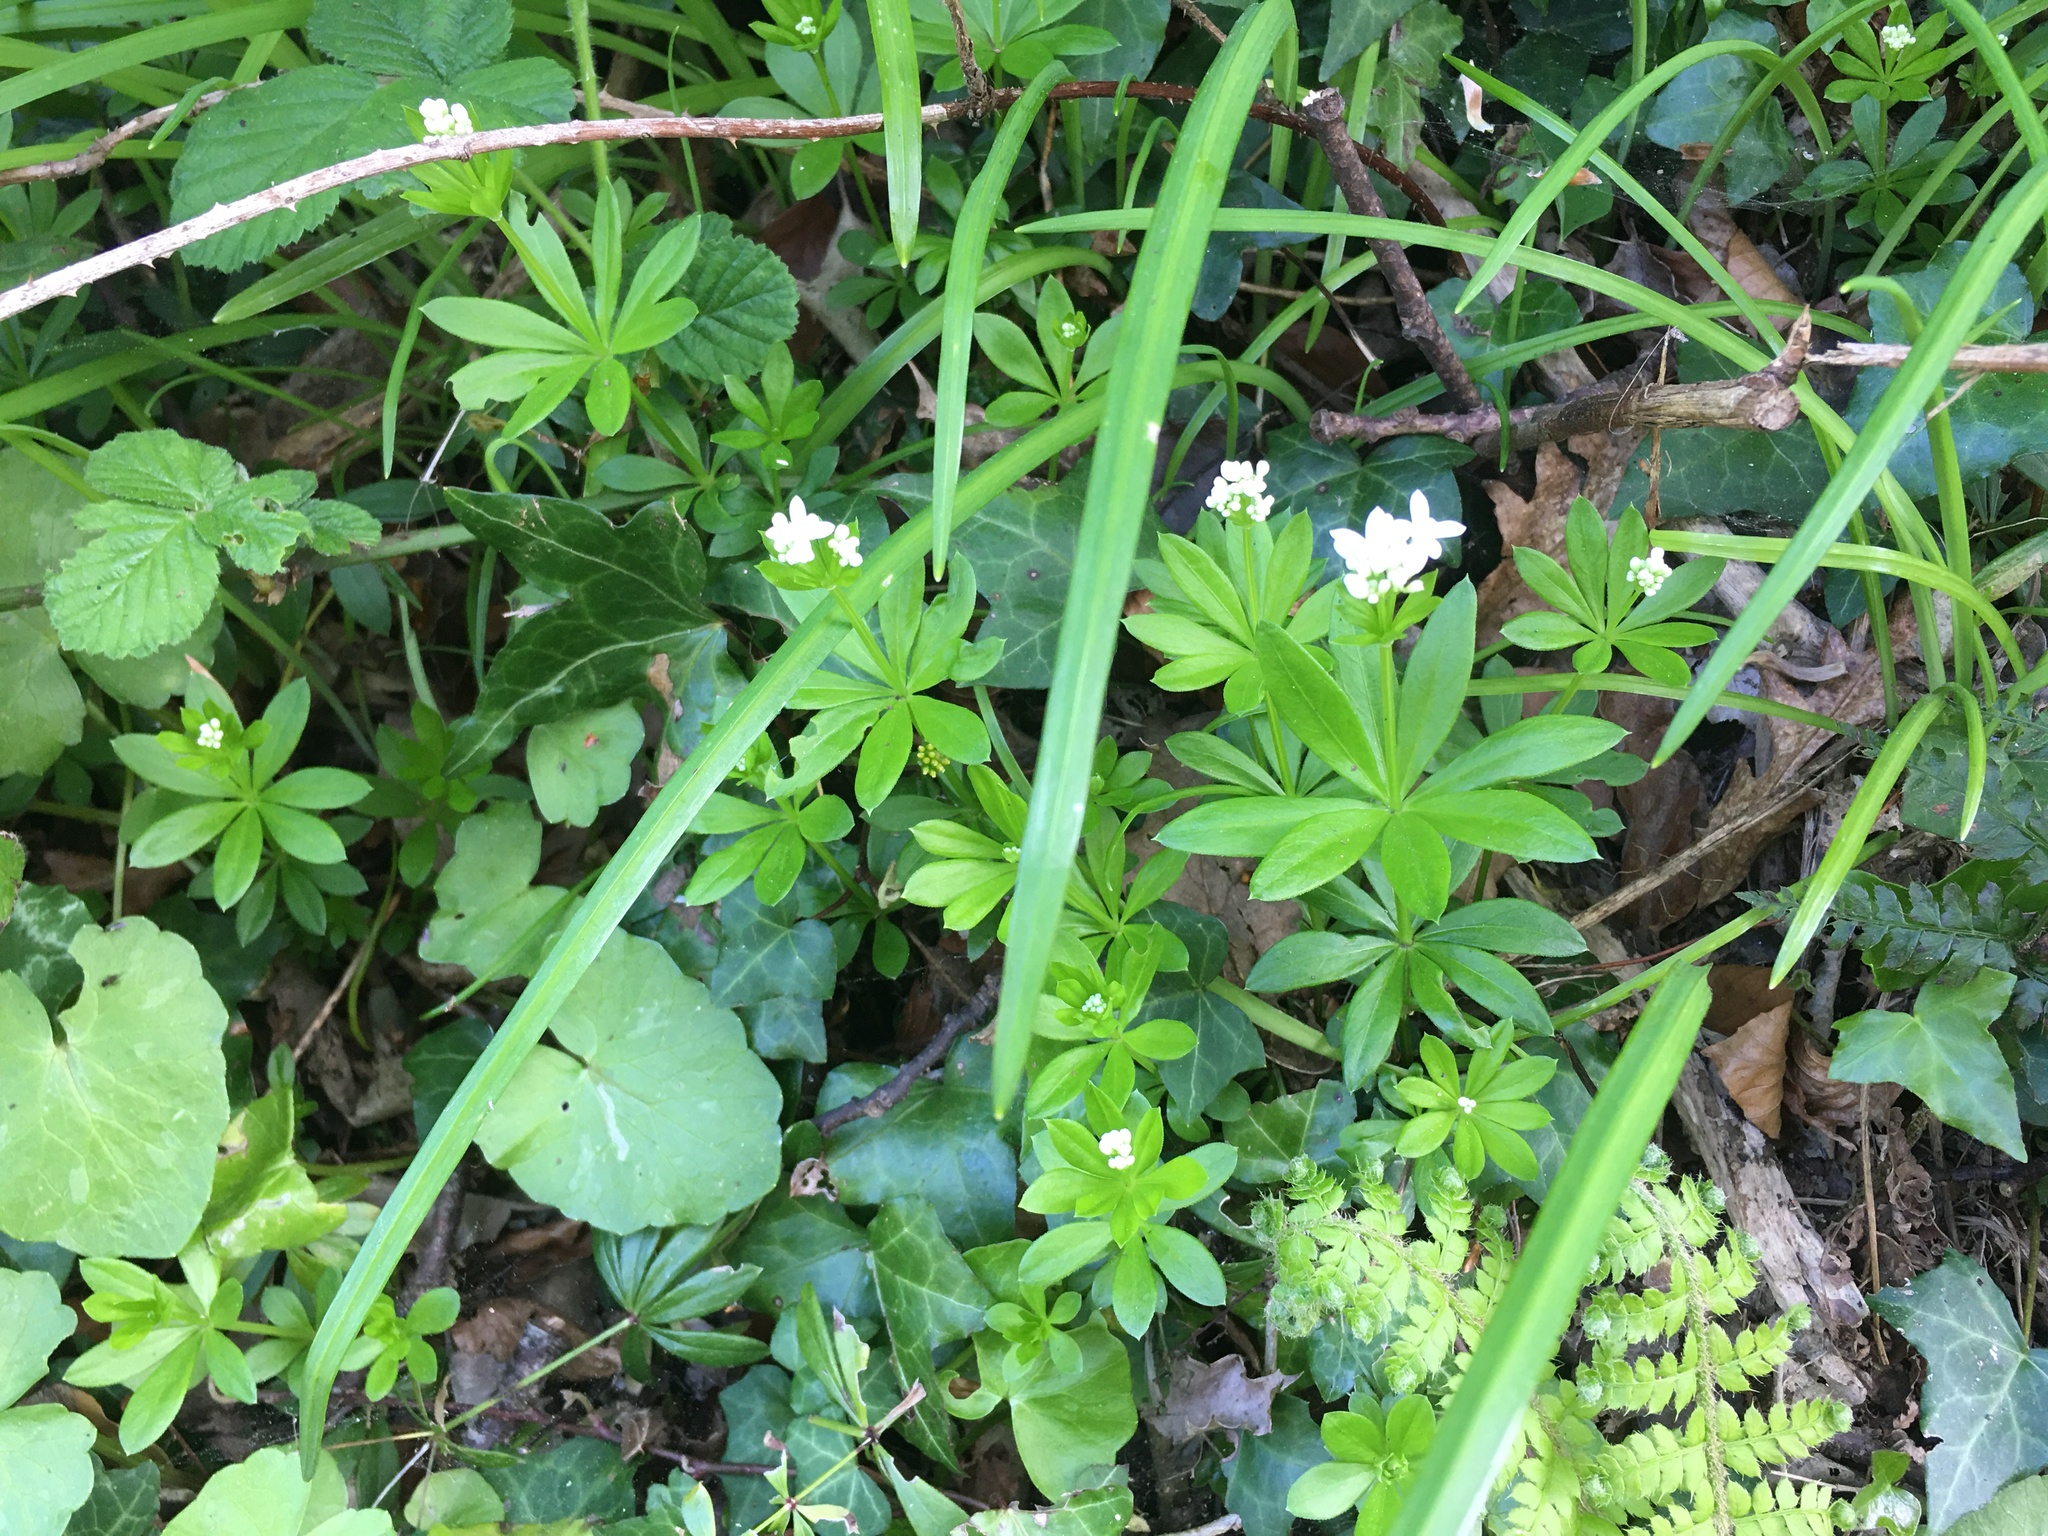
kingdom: Plantae
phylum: Tracheophyta
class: Magnoliopsida
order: Gentianales
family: Rubiaceae
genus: Galium
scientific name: Galium odoratum
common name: Sweet woodruff
